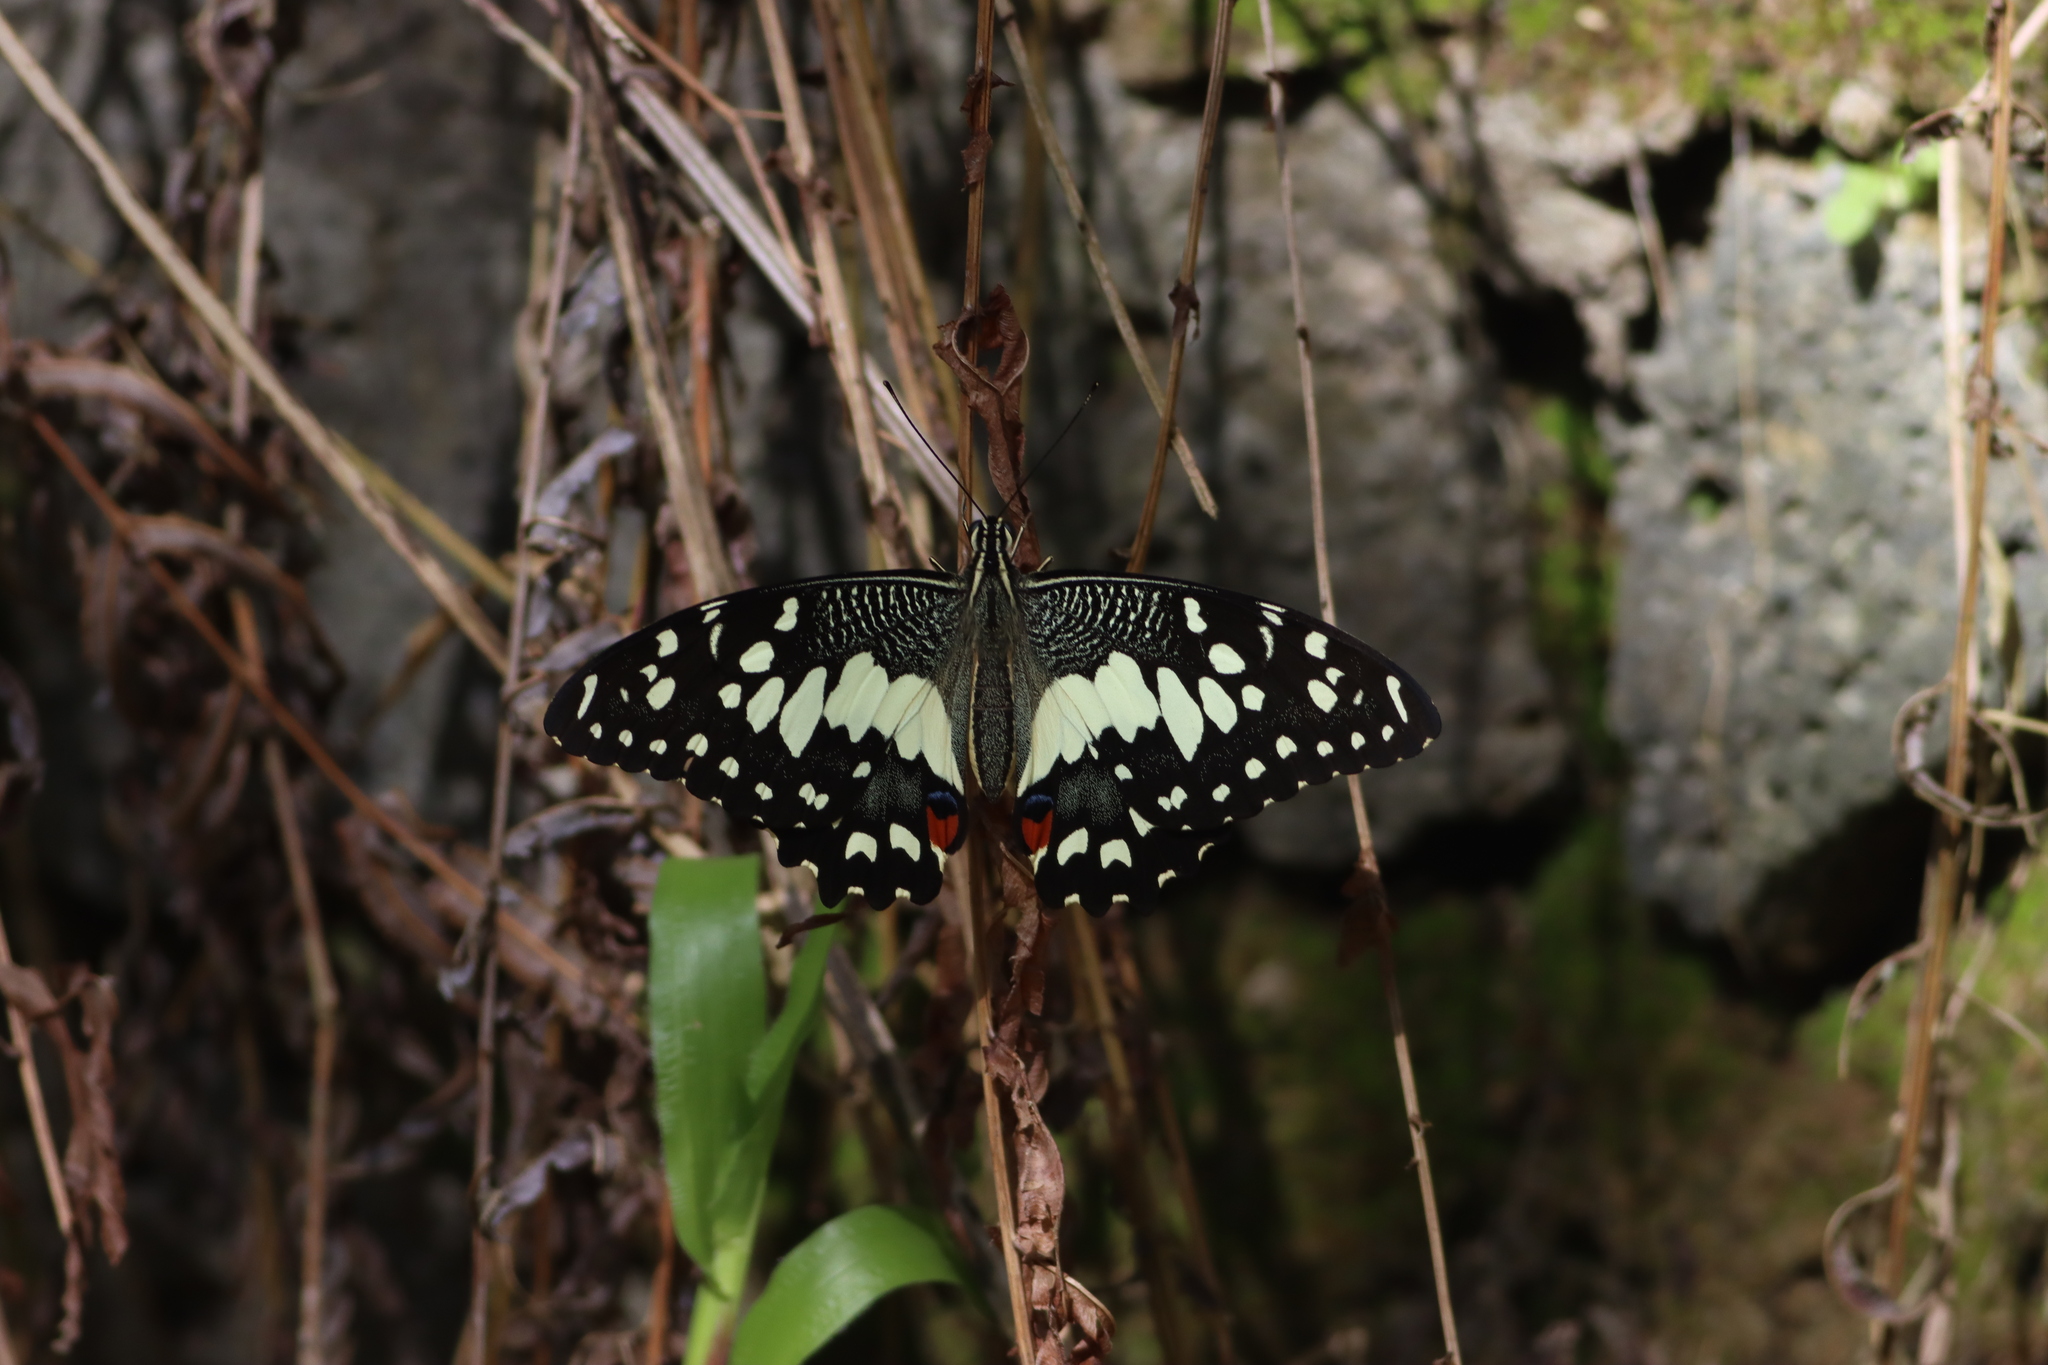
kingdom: Animalia
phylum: Arthropoda
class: Insecta
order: Lepidoptera
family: Papilionidae
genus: Papilio
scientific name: Papilio demoleus
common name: Lime butterfly
